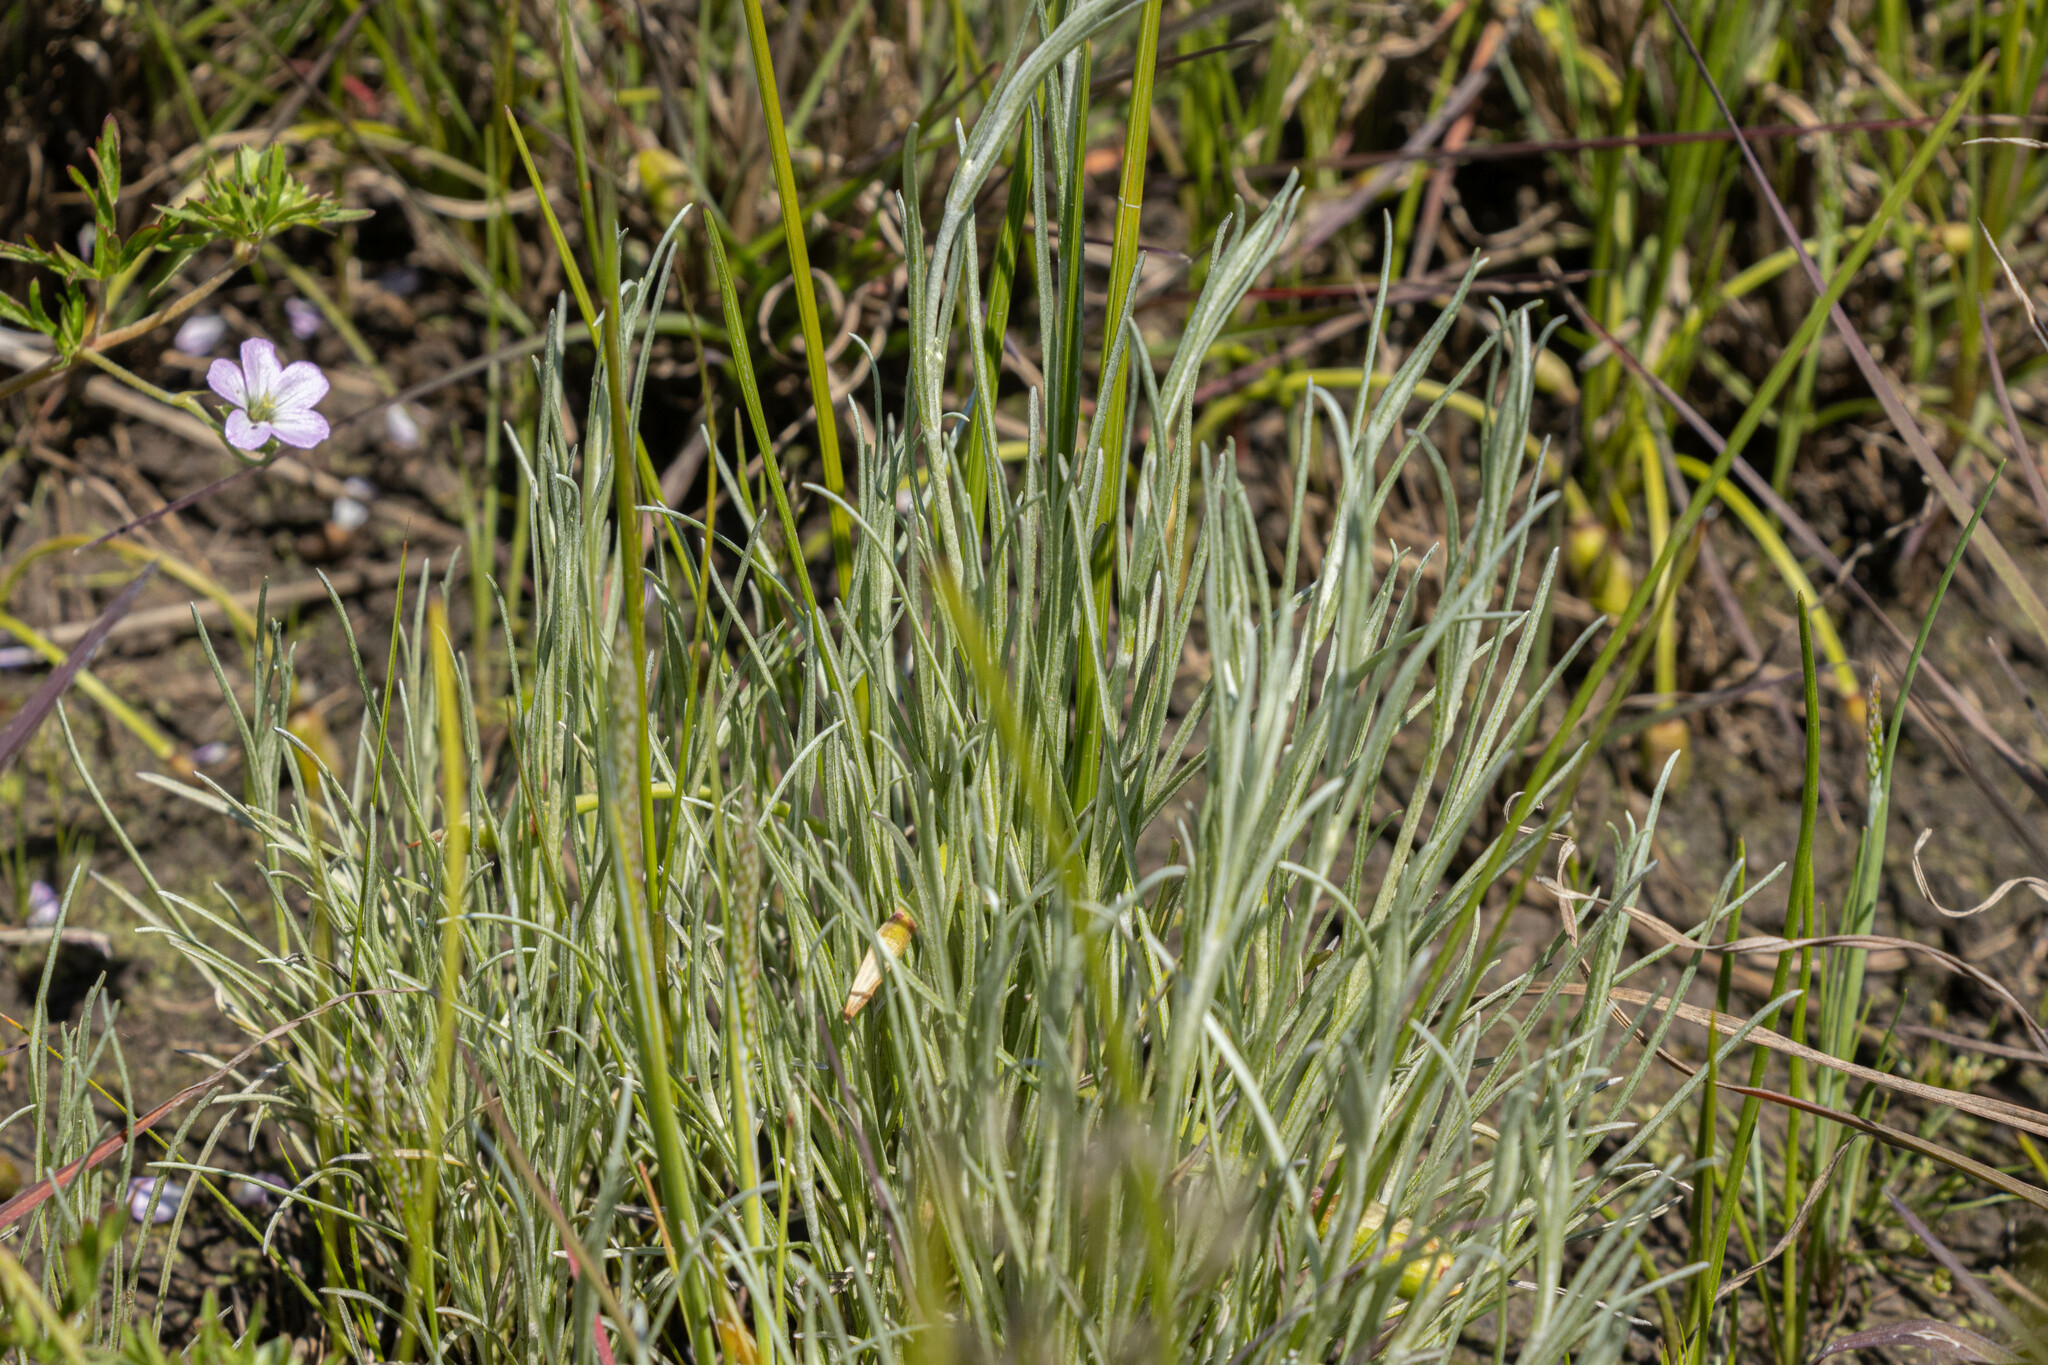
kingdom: Plantae
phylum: Tracheophyta
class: Magnoliopsida
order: Asterales
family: Asteraceae
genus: Calocephalus
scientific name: Calocephalus citreus
